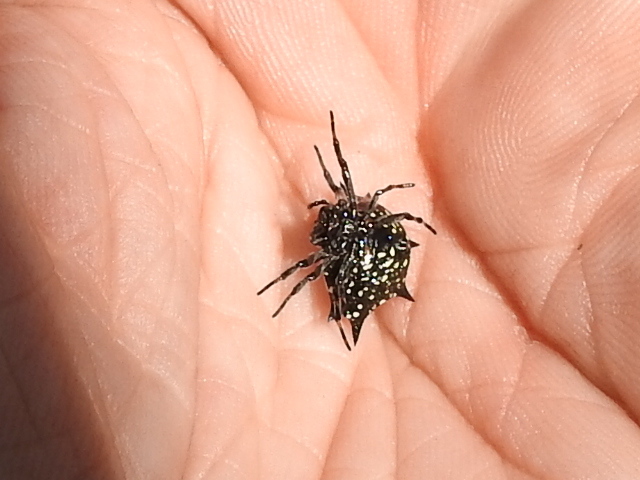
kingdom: Animalia
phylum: Arthropoda
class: Arachnida
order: Araneae
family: Araneidae
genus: Gasteracantha
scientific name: Gasteracantha cancriformis
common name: Orb weavers
